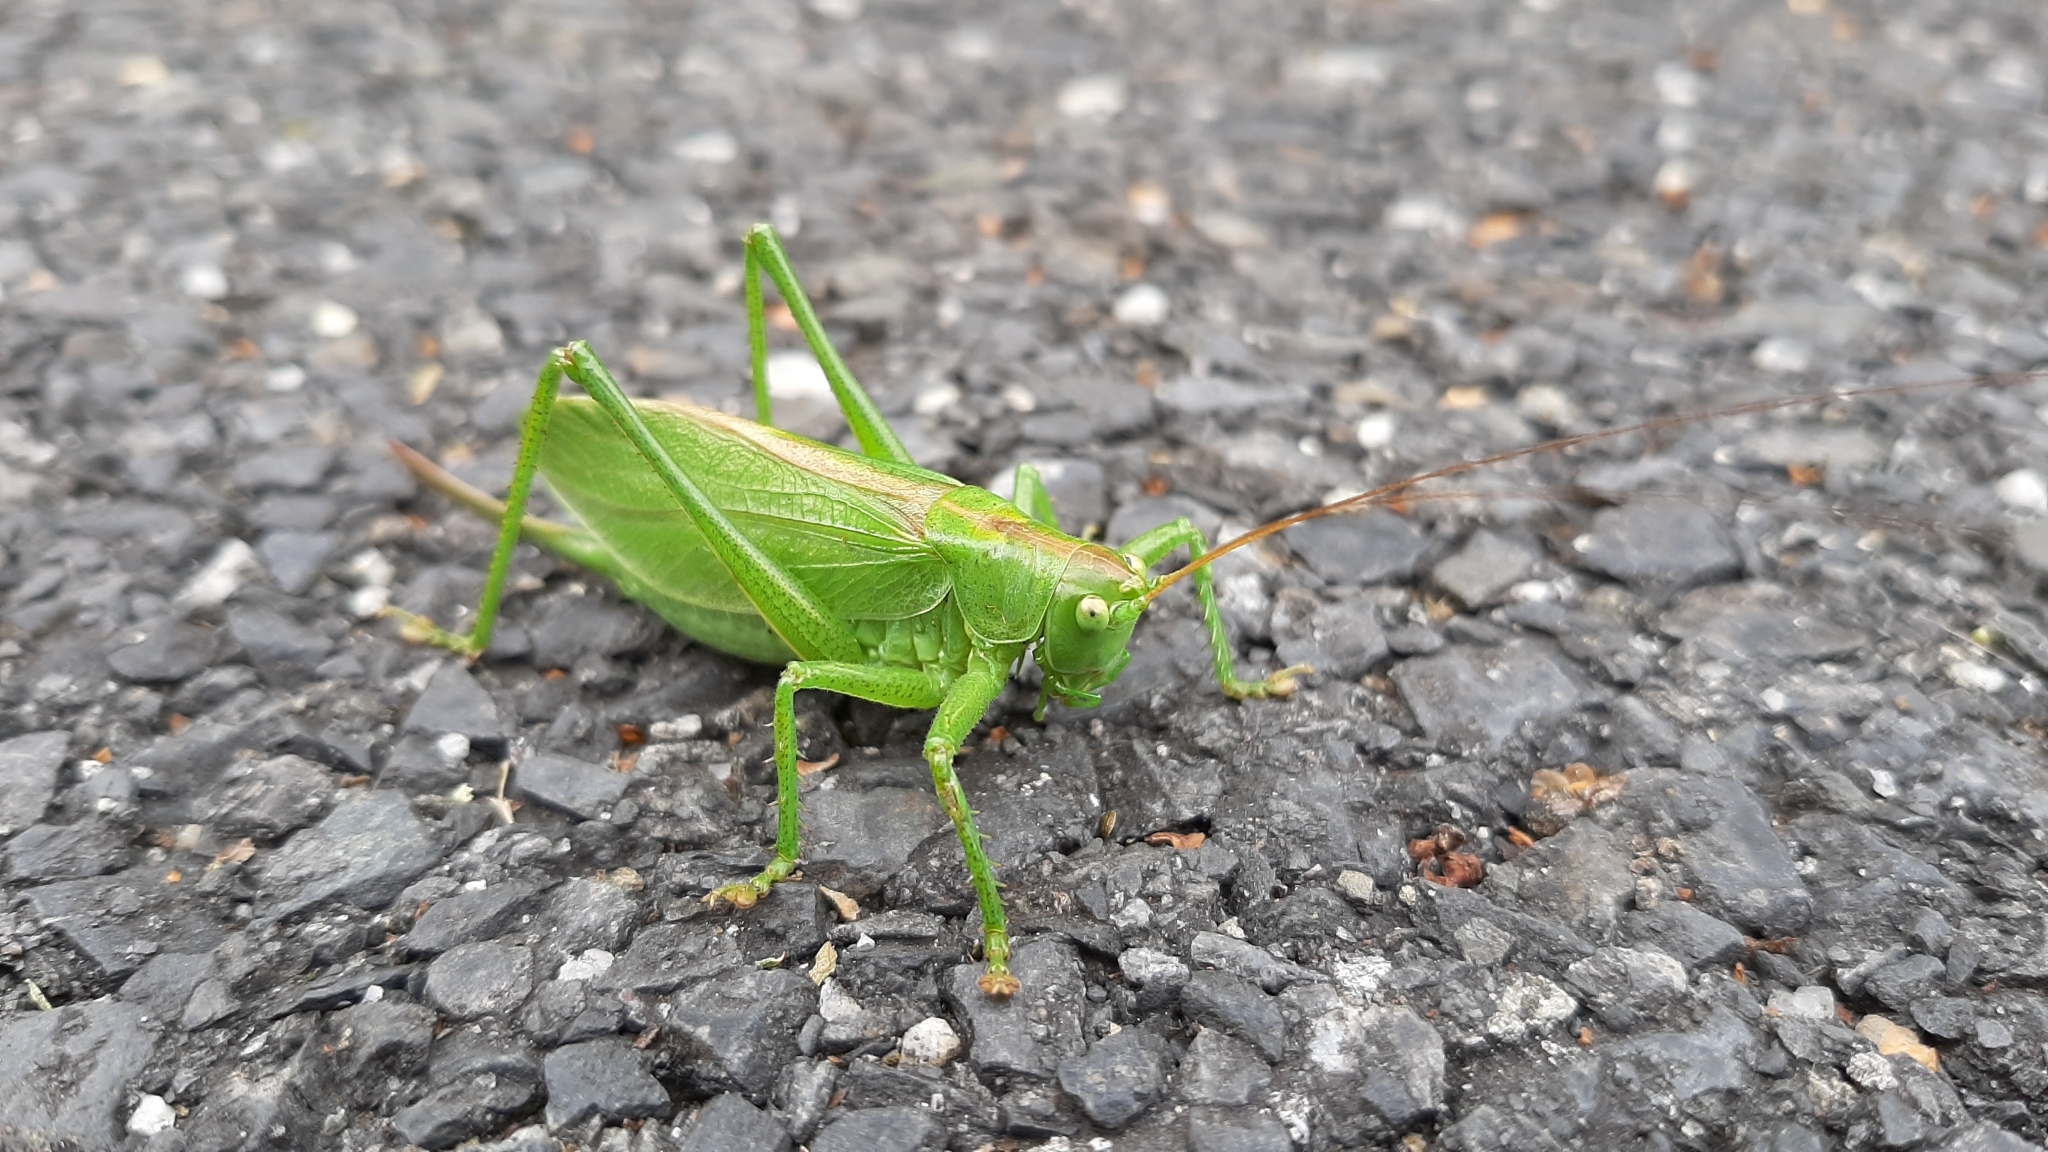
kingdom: Animalia
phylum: Arthropoda
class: Insecta
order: Orthoptera
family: Tettigoniidae
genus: Tettigonia
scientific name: Tettigonia cantans
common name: Upland green bush-cricket
